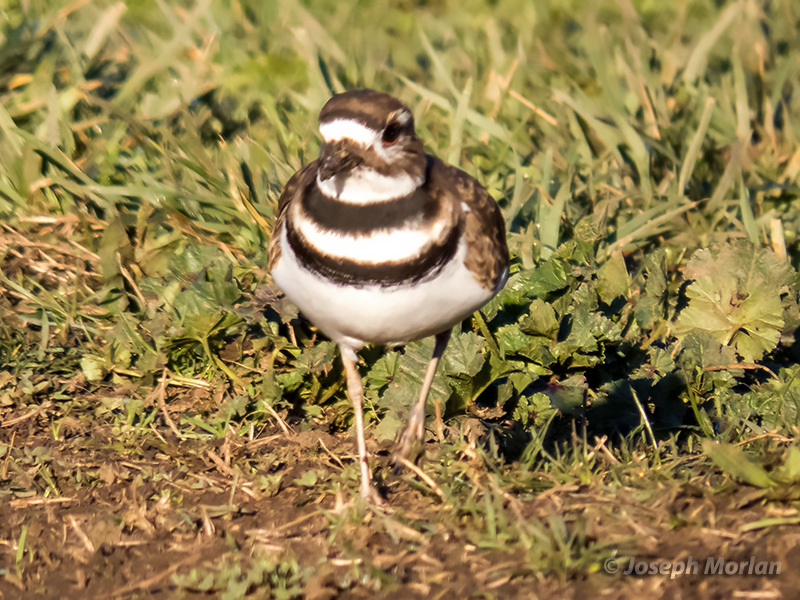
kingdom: Animalia
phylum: Chordata
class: Aves
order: Charadriiformes
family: Charadriidae
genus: Charadrius
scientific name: Charadrius vociferus
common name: Killdeer
